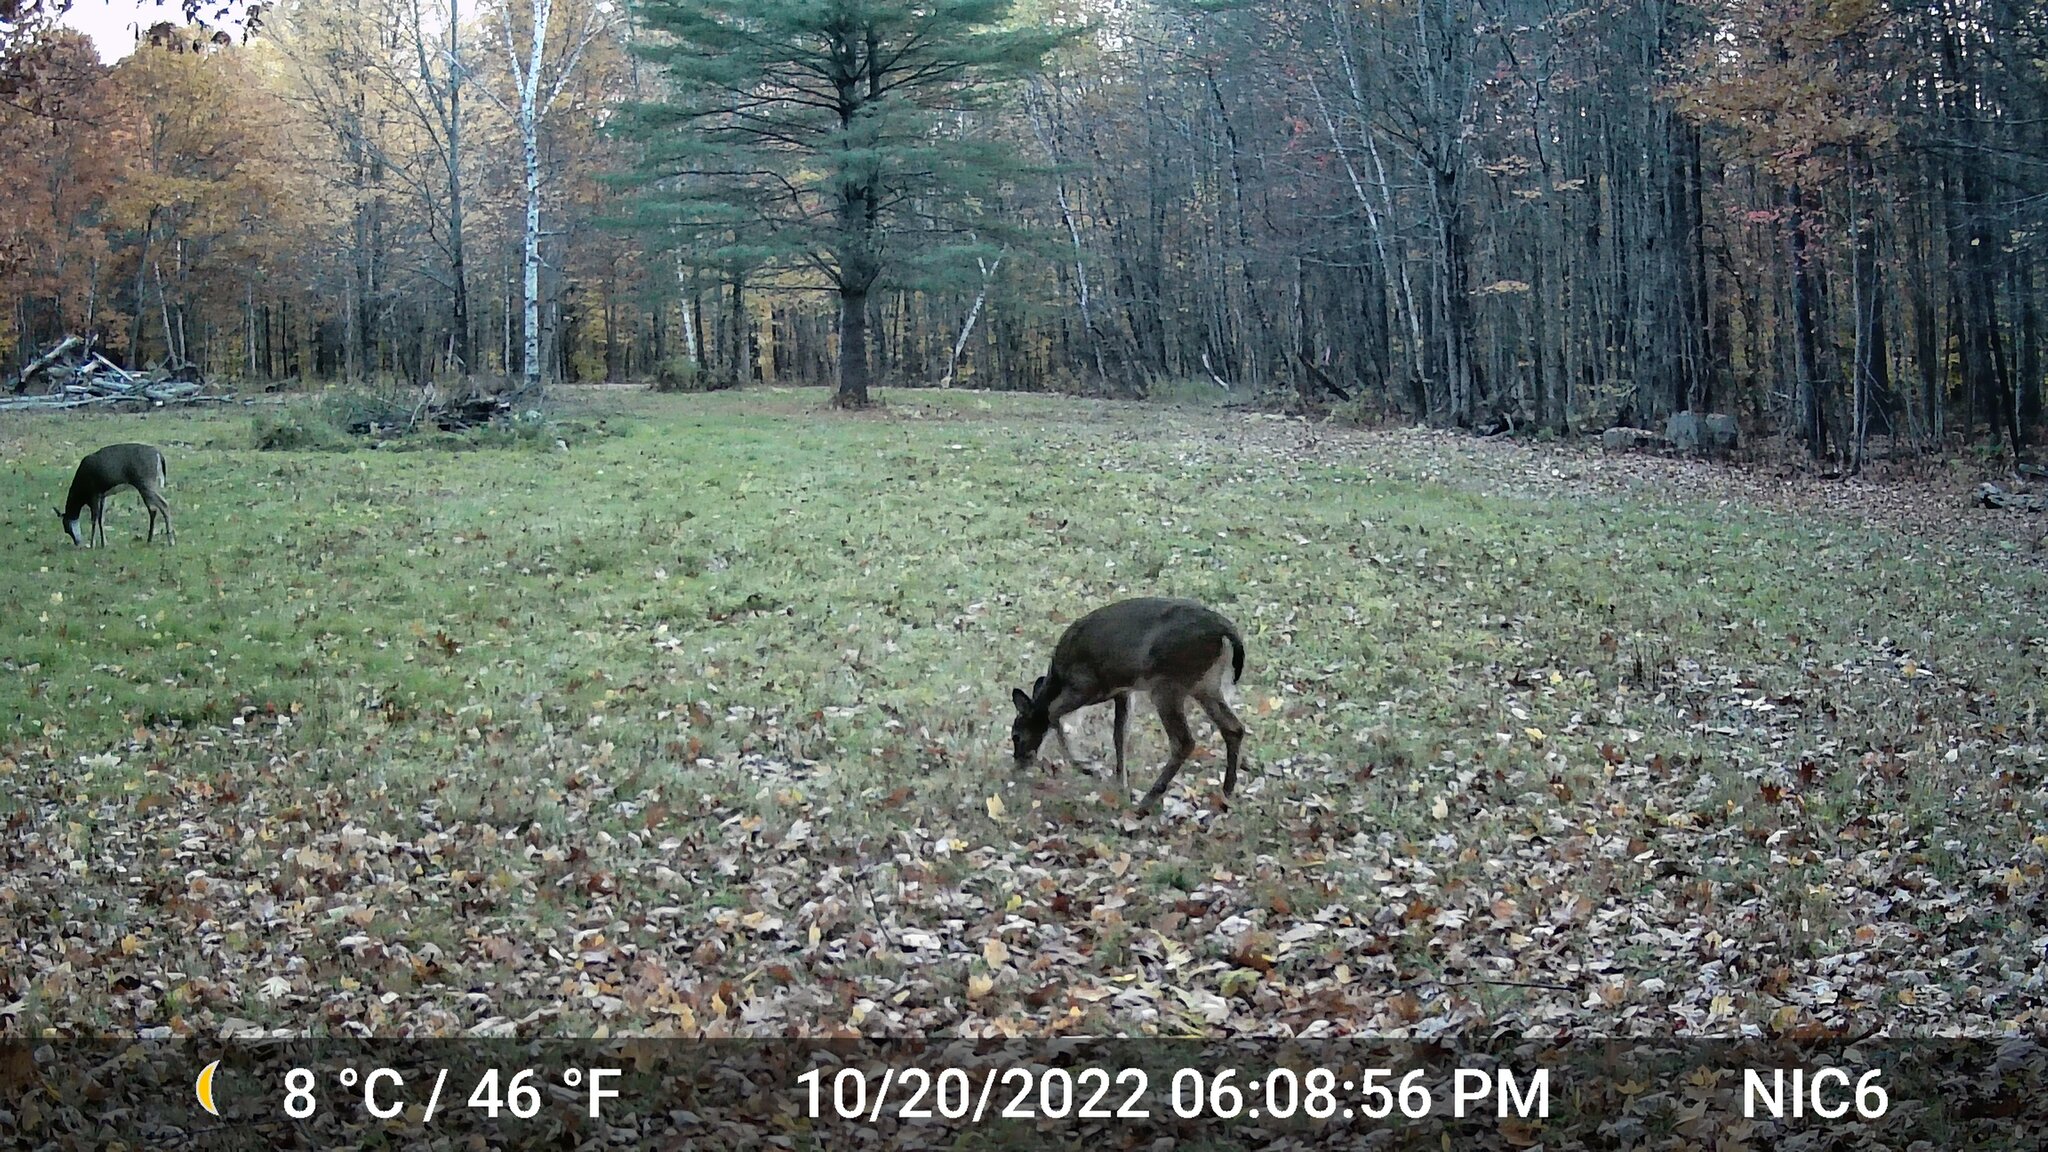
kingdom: Animalia
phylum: Chordata
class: Mammalia
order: Artiodactyla
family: Cervidae
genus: Odocoileus
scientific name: Odocoileus virginianus
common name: White-tailed deer
